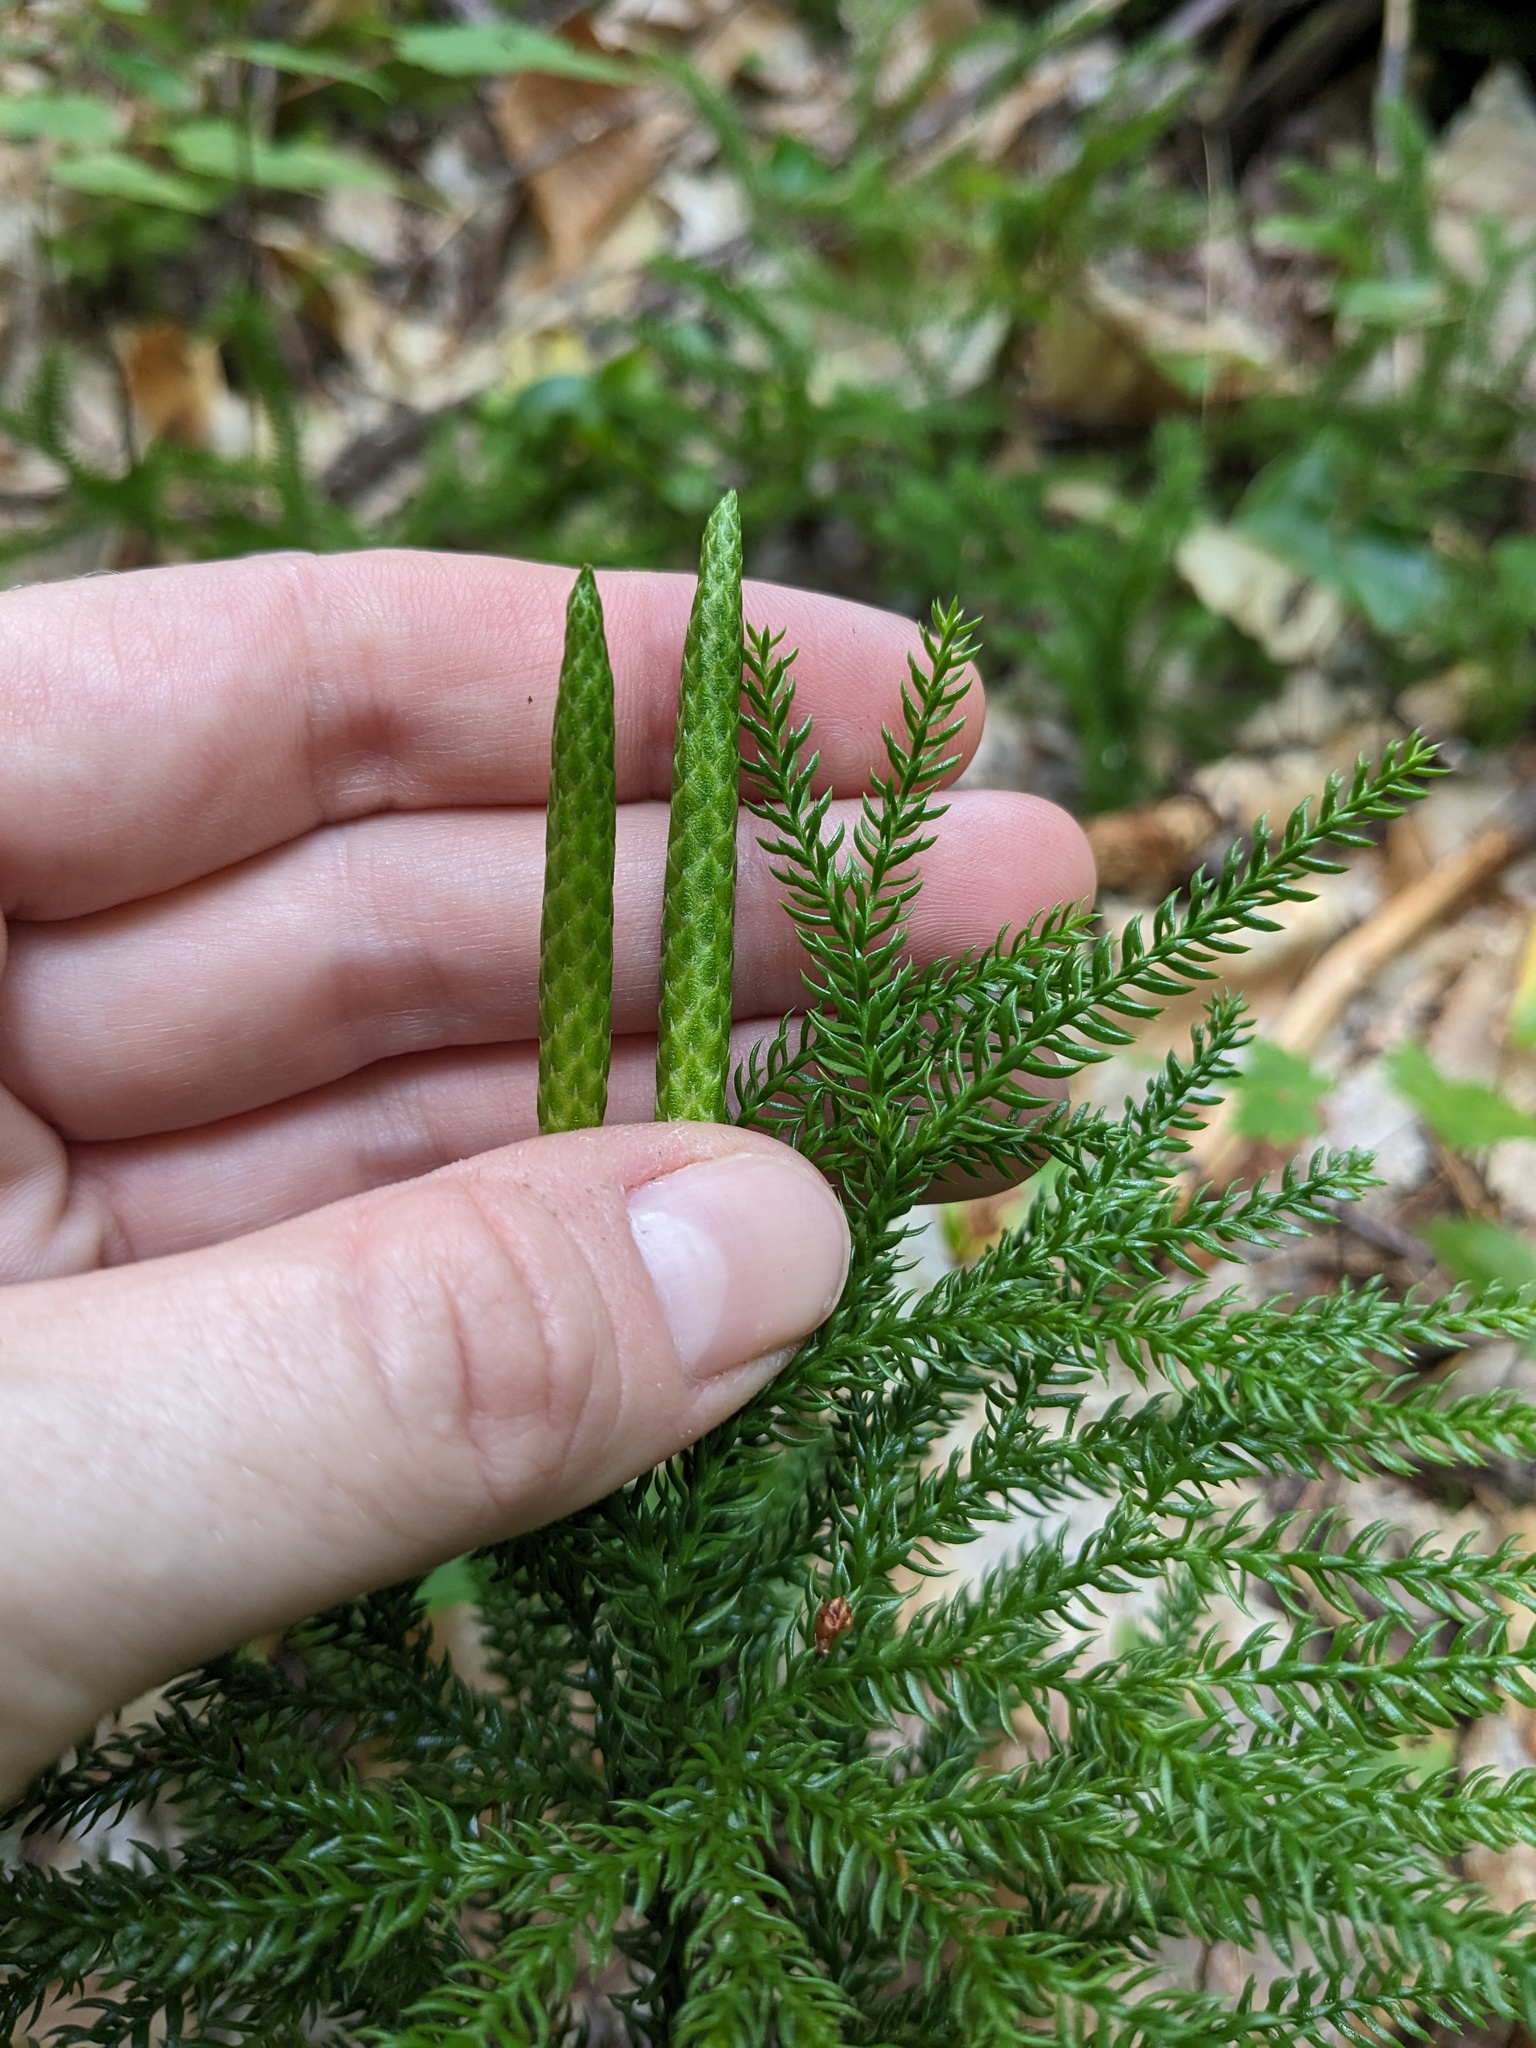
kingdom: Plantae
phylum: Tracheophyta
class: Lycopodiopsida
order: Lycopodiales
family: Lycopodiaceae
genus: Dendrolycopodium
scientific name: Dendrolycopodium dendroideum
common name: Northern tree-clubmoss
